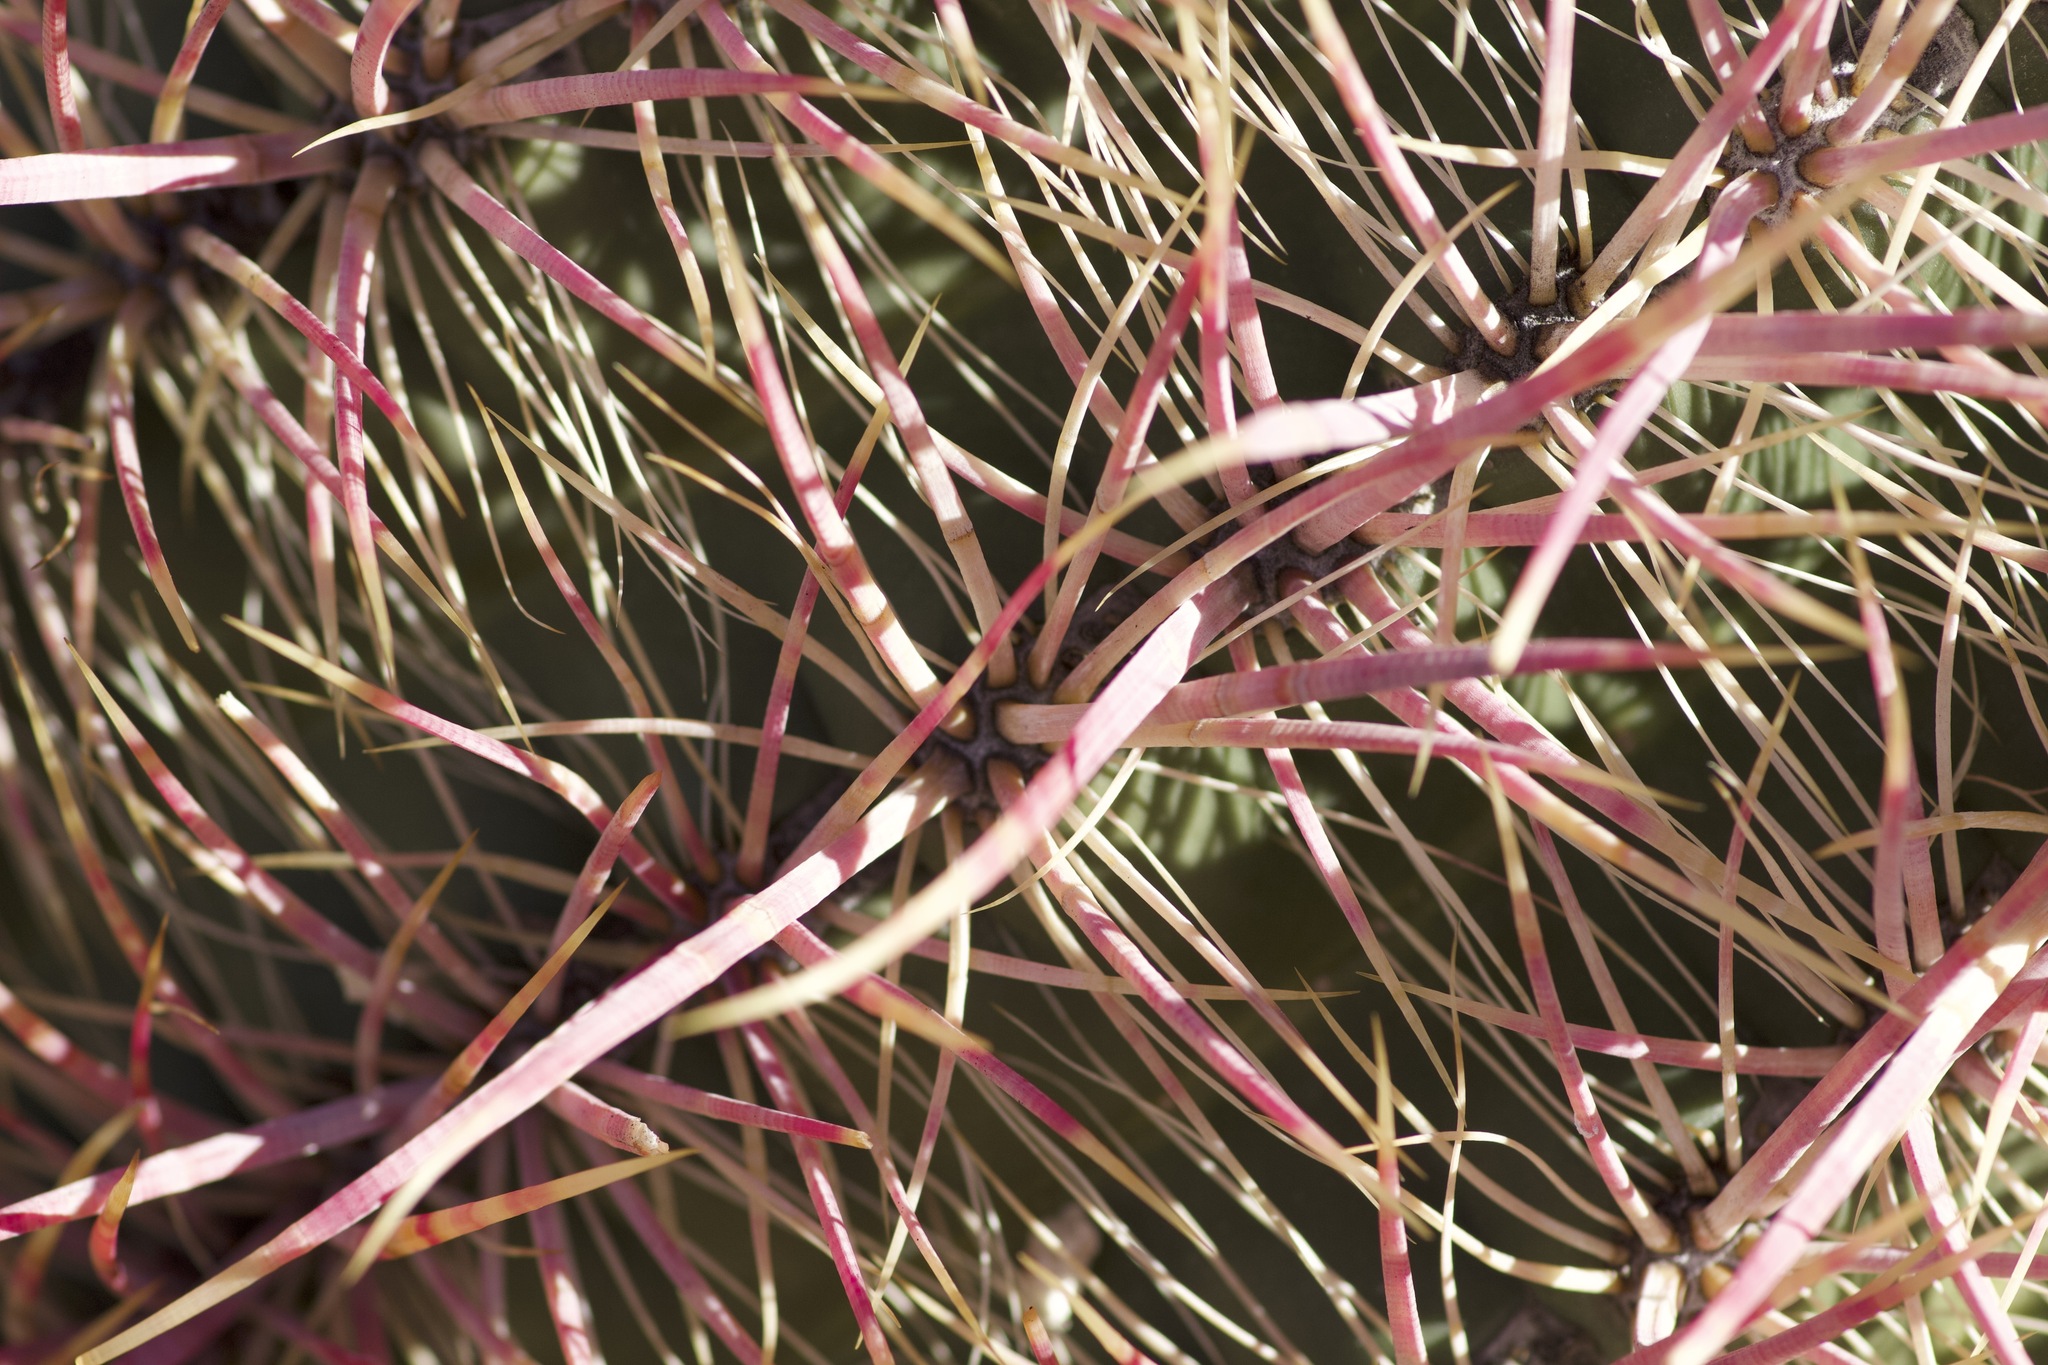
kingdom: Plantae
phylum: Tracheophyta
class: Magnoliopsida
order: Caryophyllales
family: Cactaceae
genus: Ferocactus
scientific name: Ferocactus cylindraceus
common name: California barrel cactus
